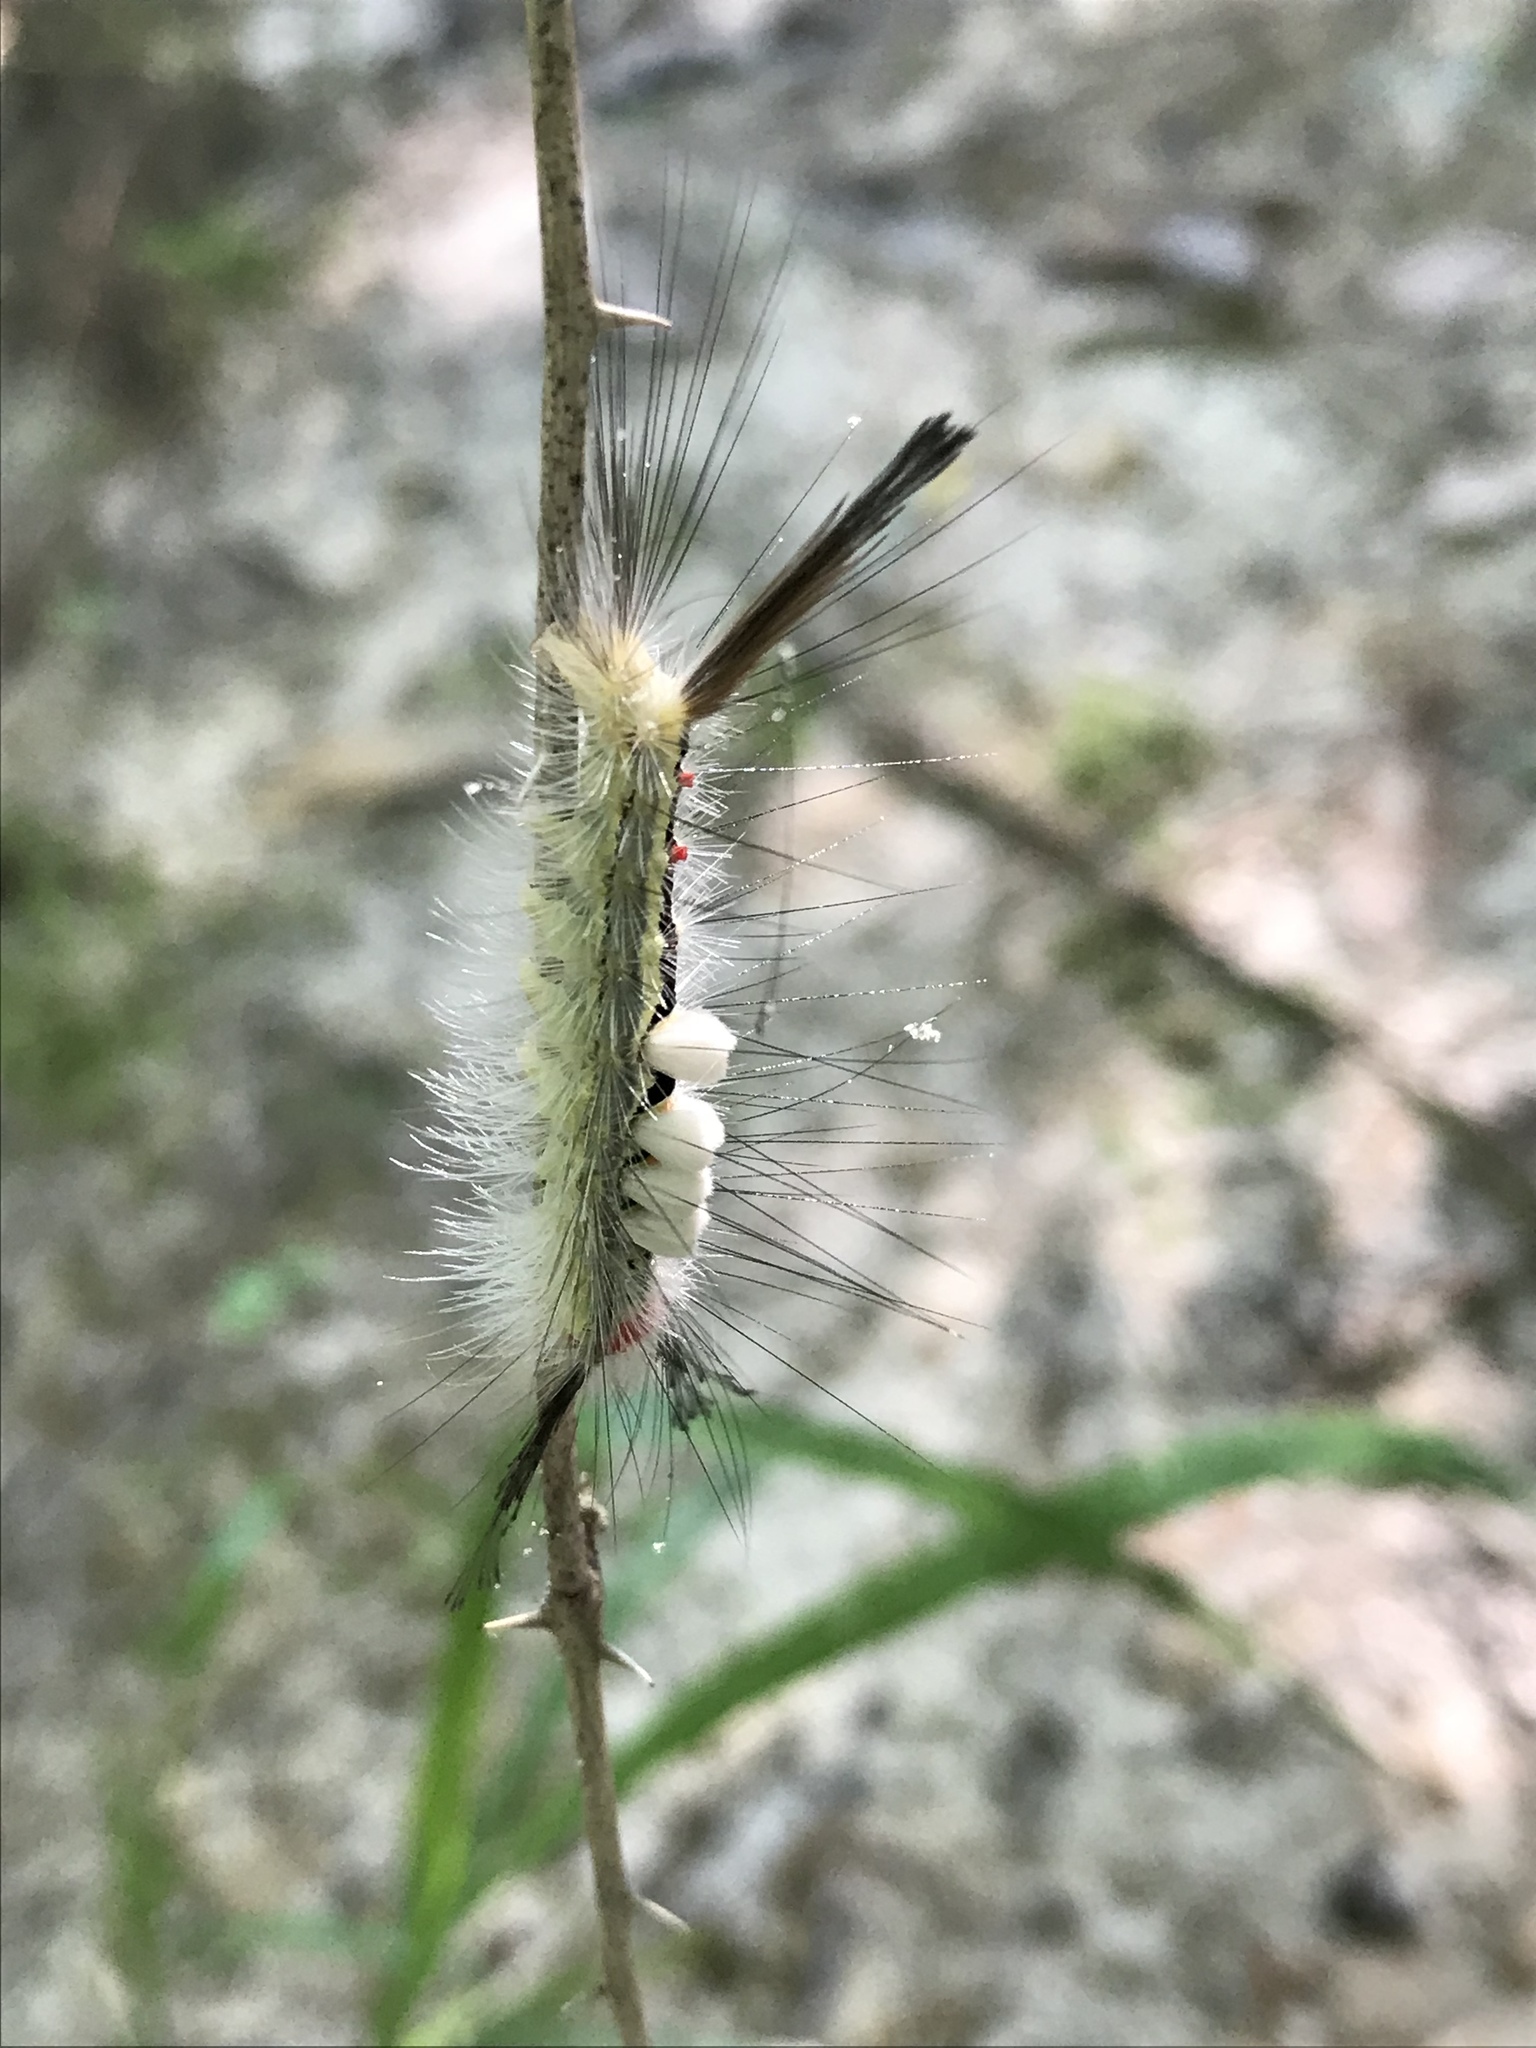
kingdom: Animalia
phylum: Arthropoda
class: Insecta
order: Lepidoptera
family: Erebidae
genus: Orgyia
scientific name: Orgyia leucostigma
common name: White-marked tussock moth
